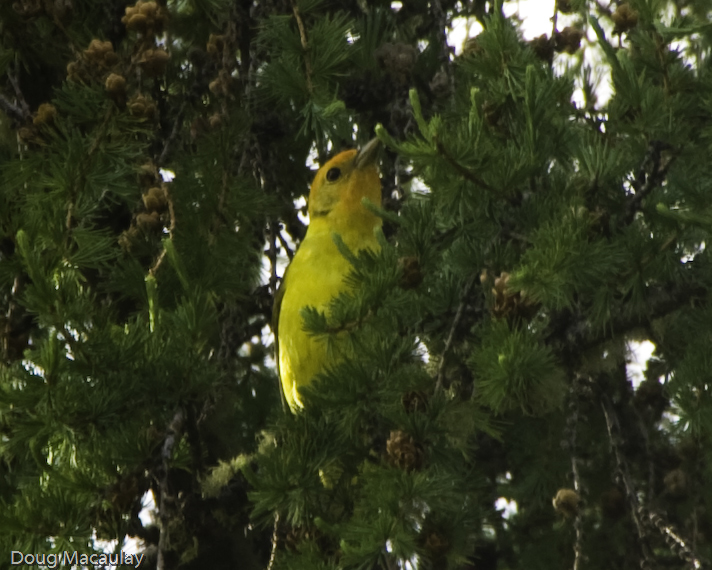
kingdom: Animalia
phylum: Chordata
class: Aves
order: Passeriformes
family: Cardinalidae
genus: Piranga
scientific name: Piranga ludoviciana
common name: Western tanager
